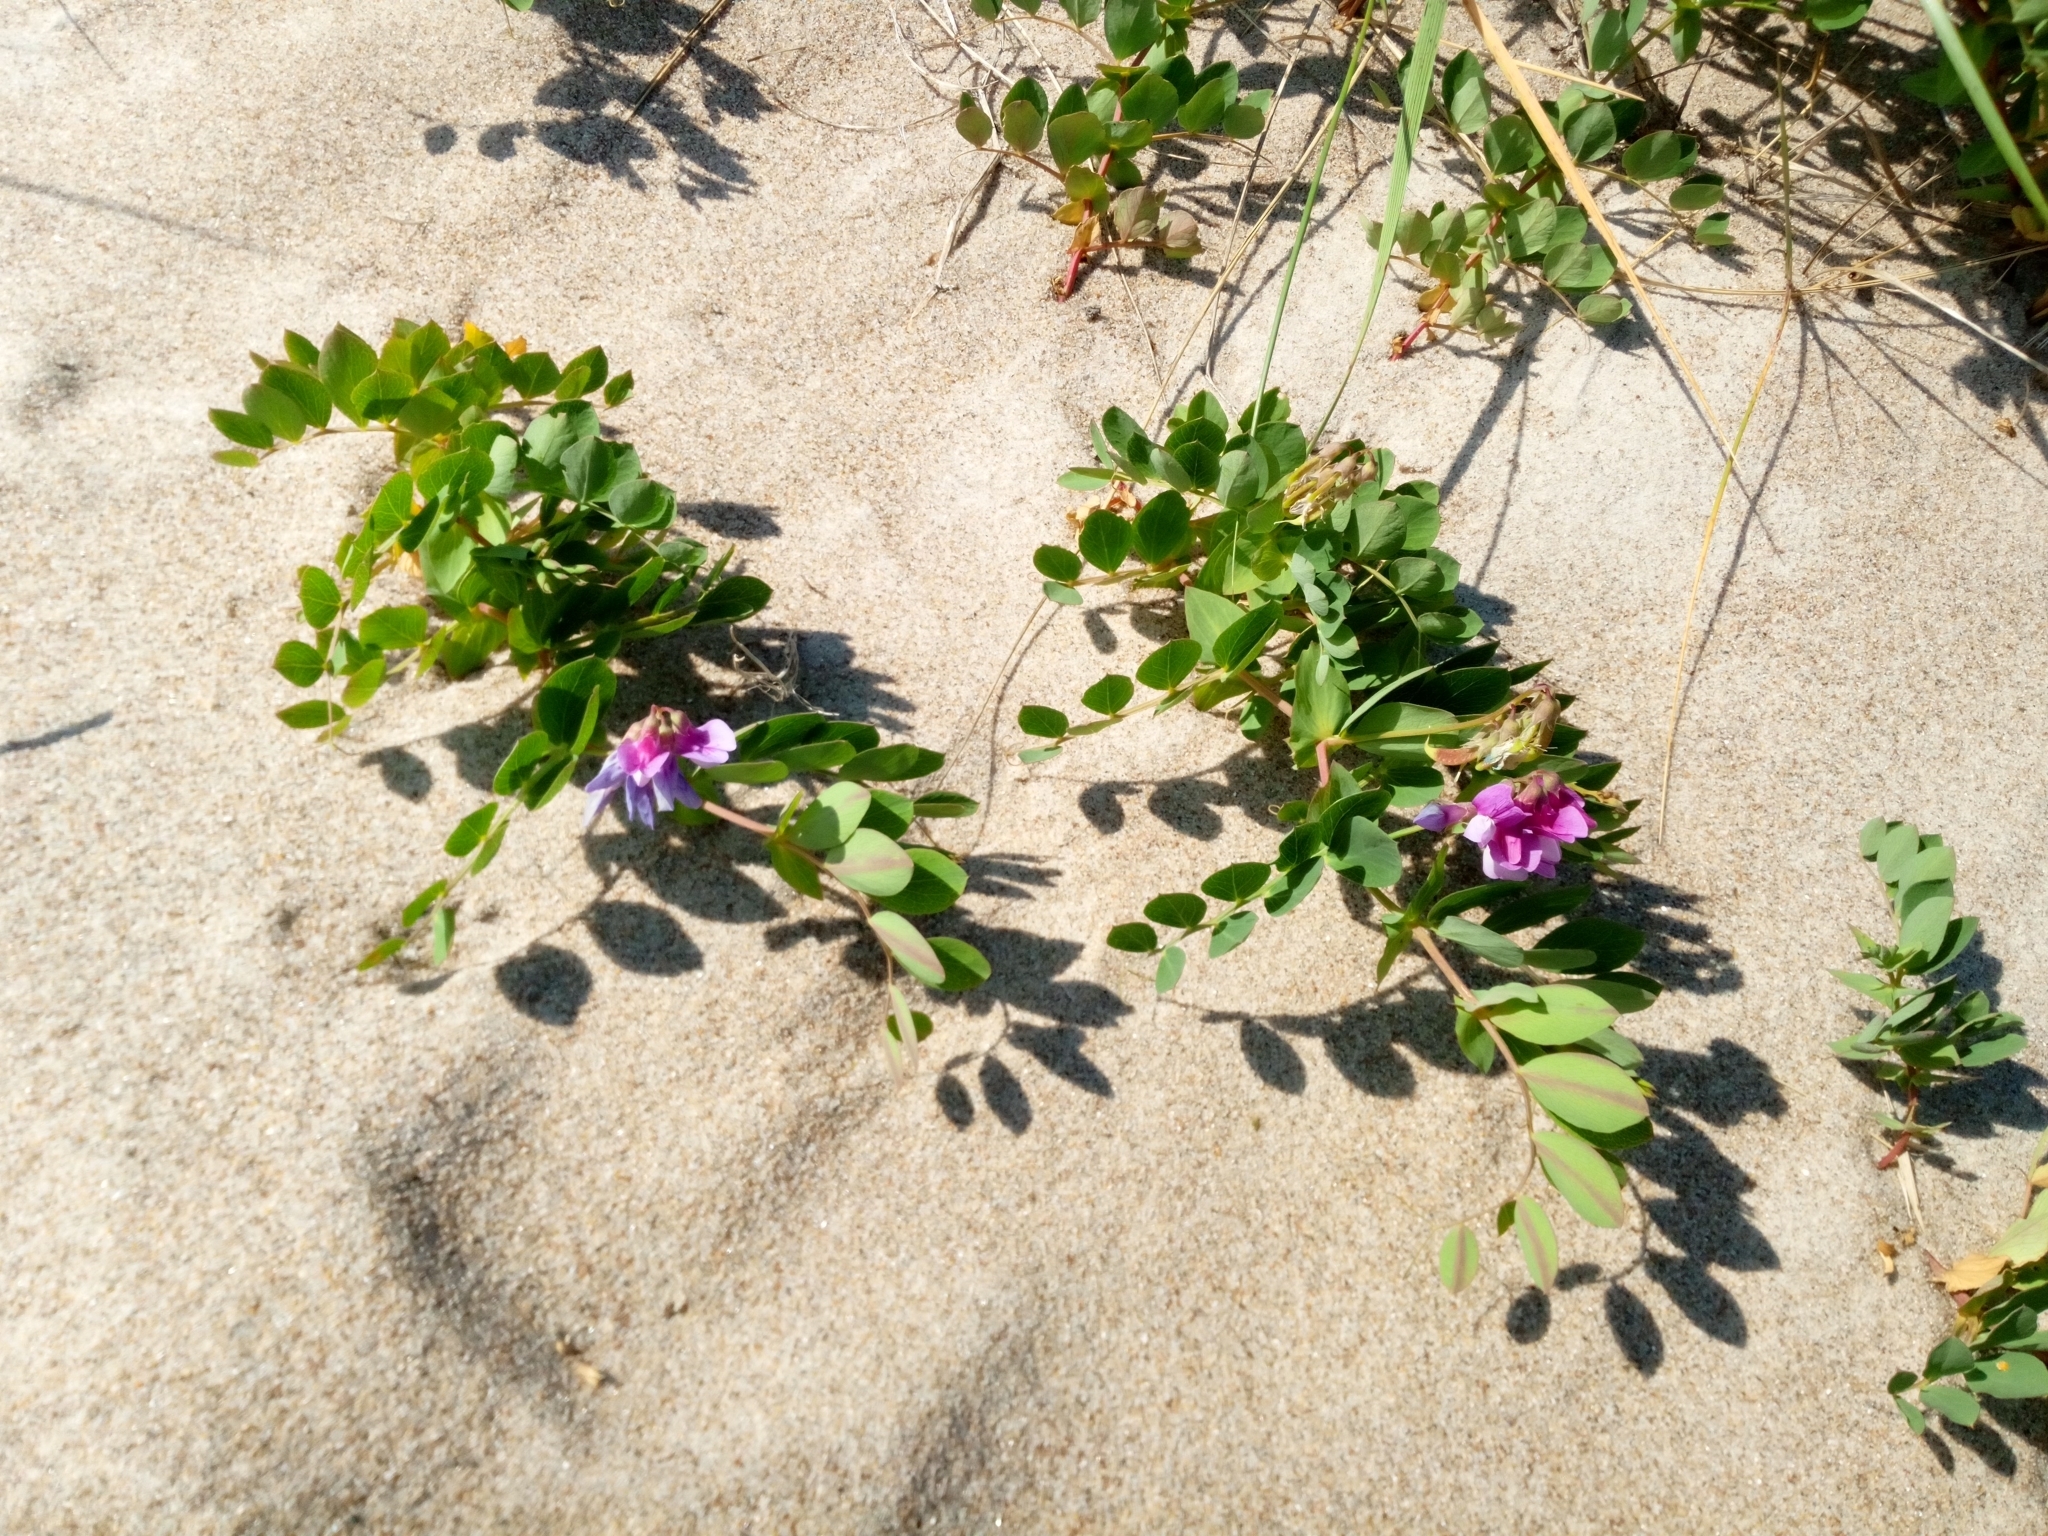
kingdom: Plantae
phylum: Tracheophyta
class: Magnoliopsida
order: Fabales
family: Fabaceae
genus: Lathyrus
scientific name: Lathyrus japonicus
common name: Sea pea
